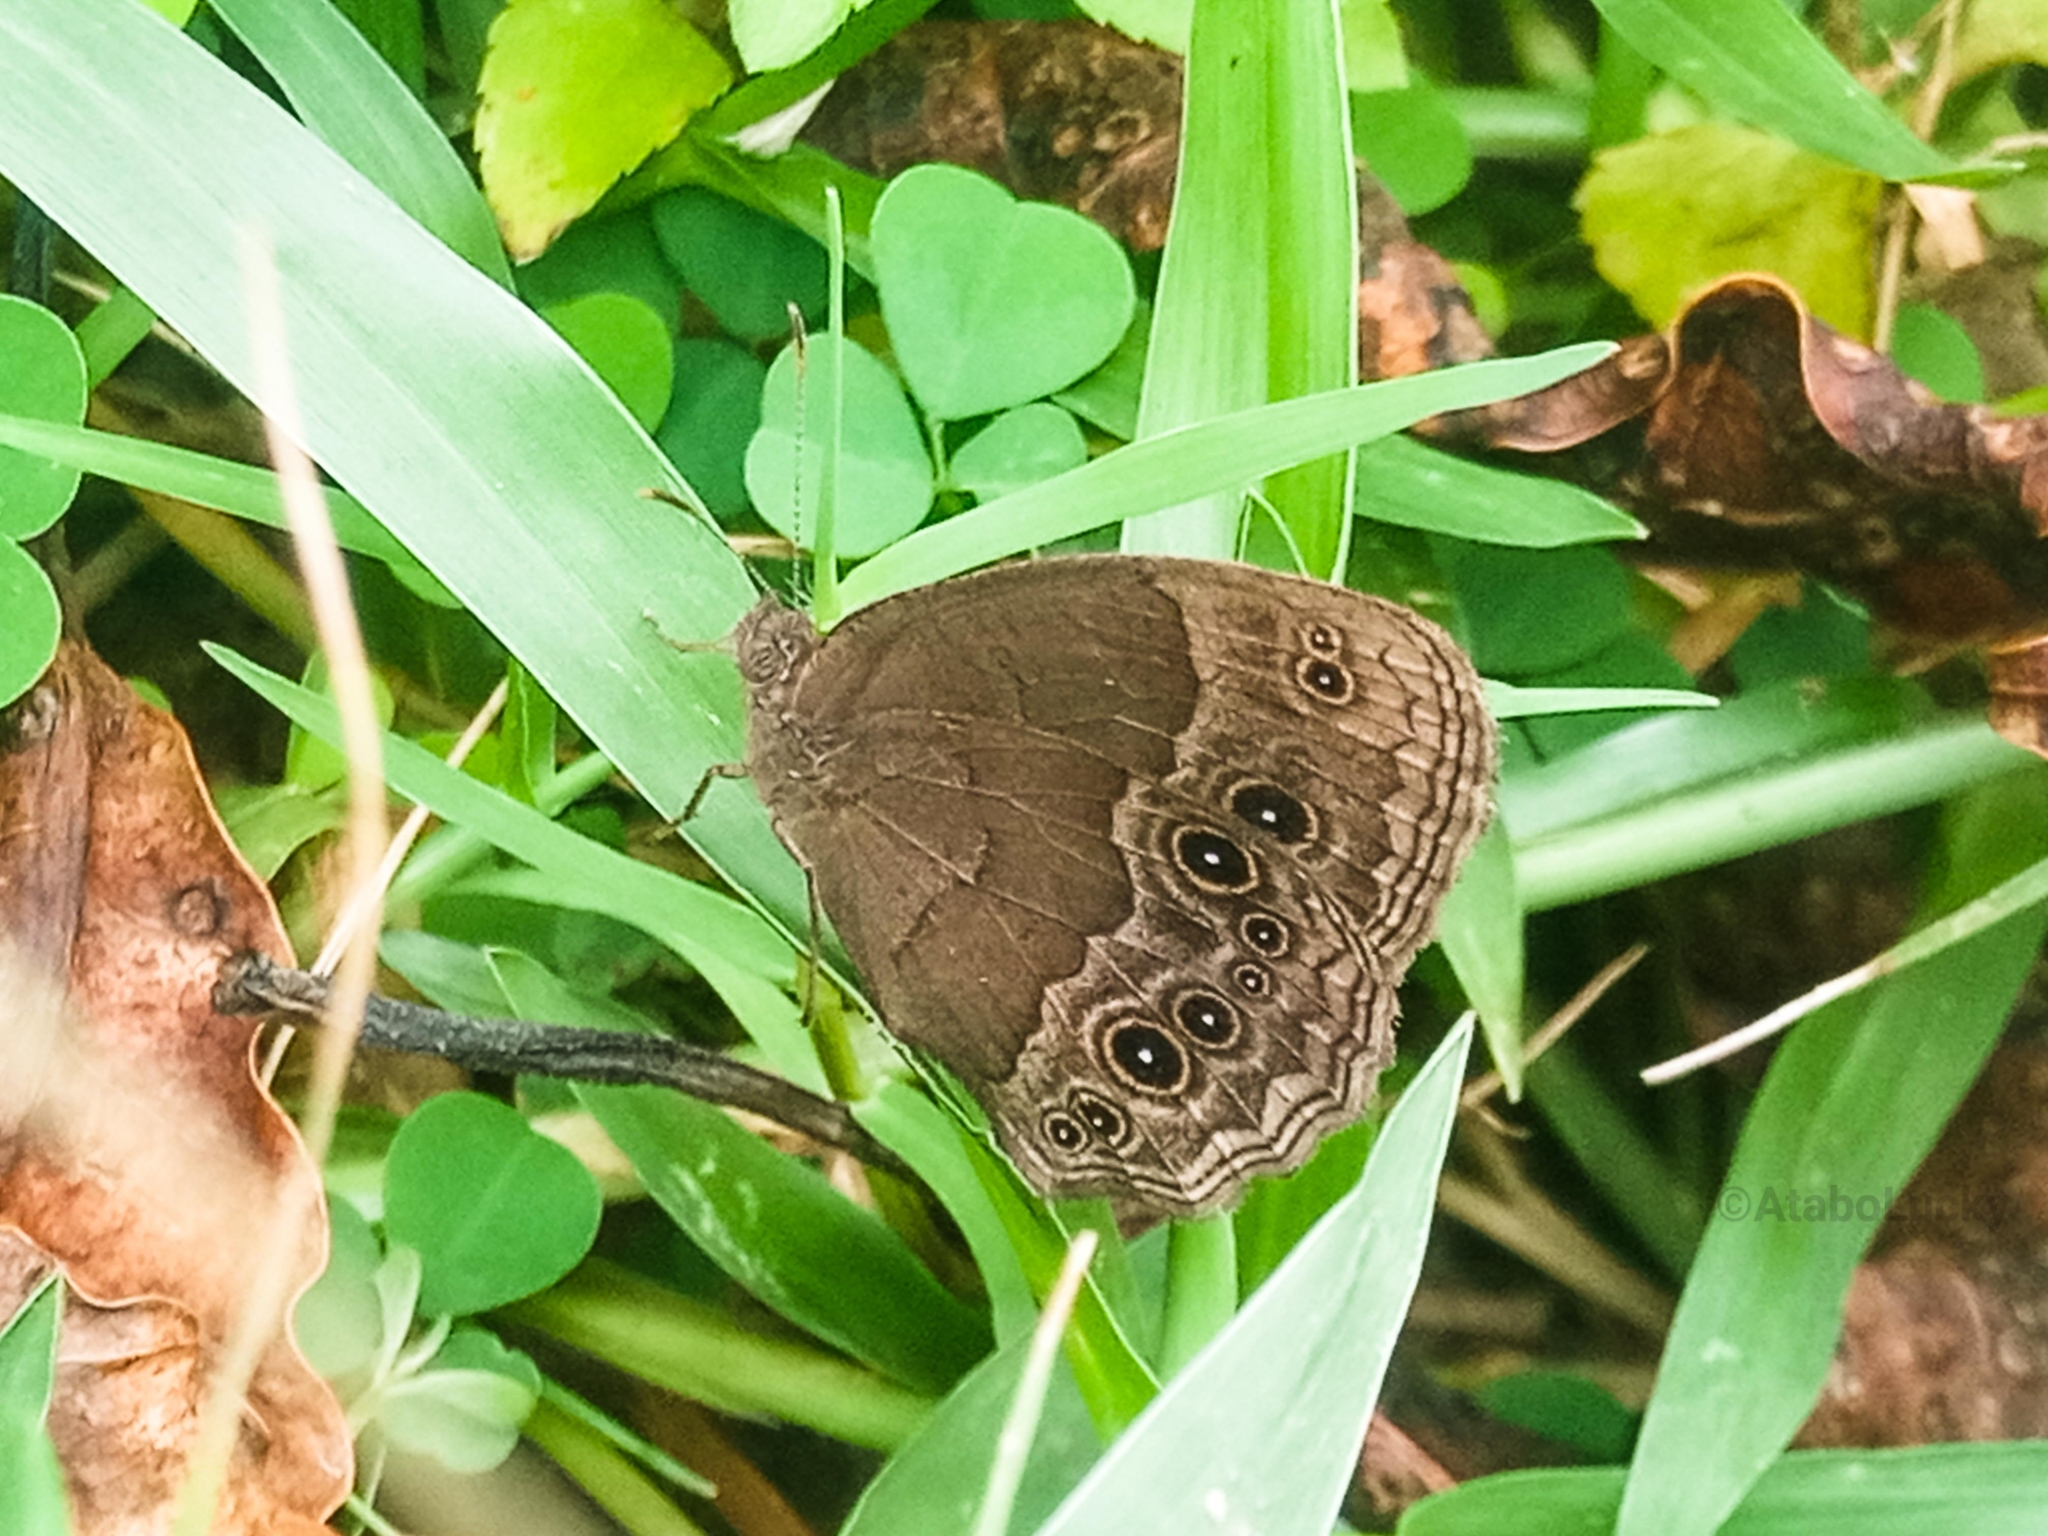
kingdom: Animalia
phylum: Arthropoda
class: Insecta
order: Lepidoptera
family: Nymphalidae
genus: Bicyclus
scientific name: Bicyclus angulosa
